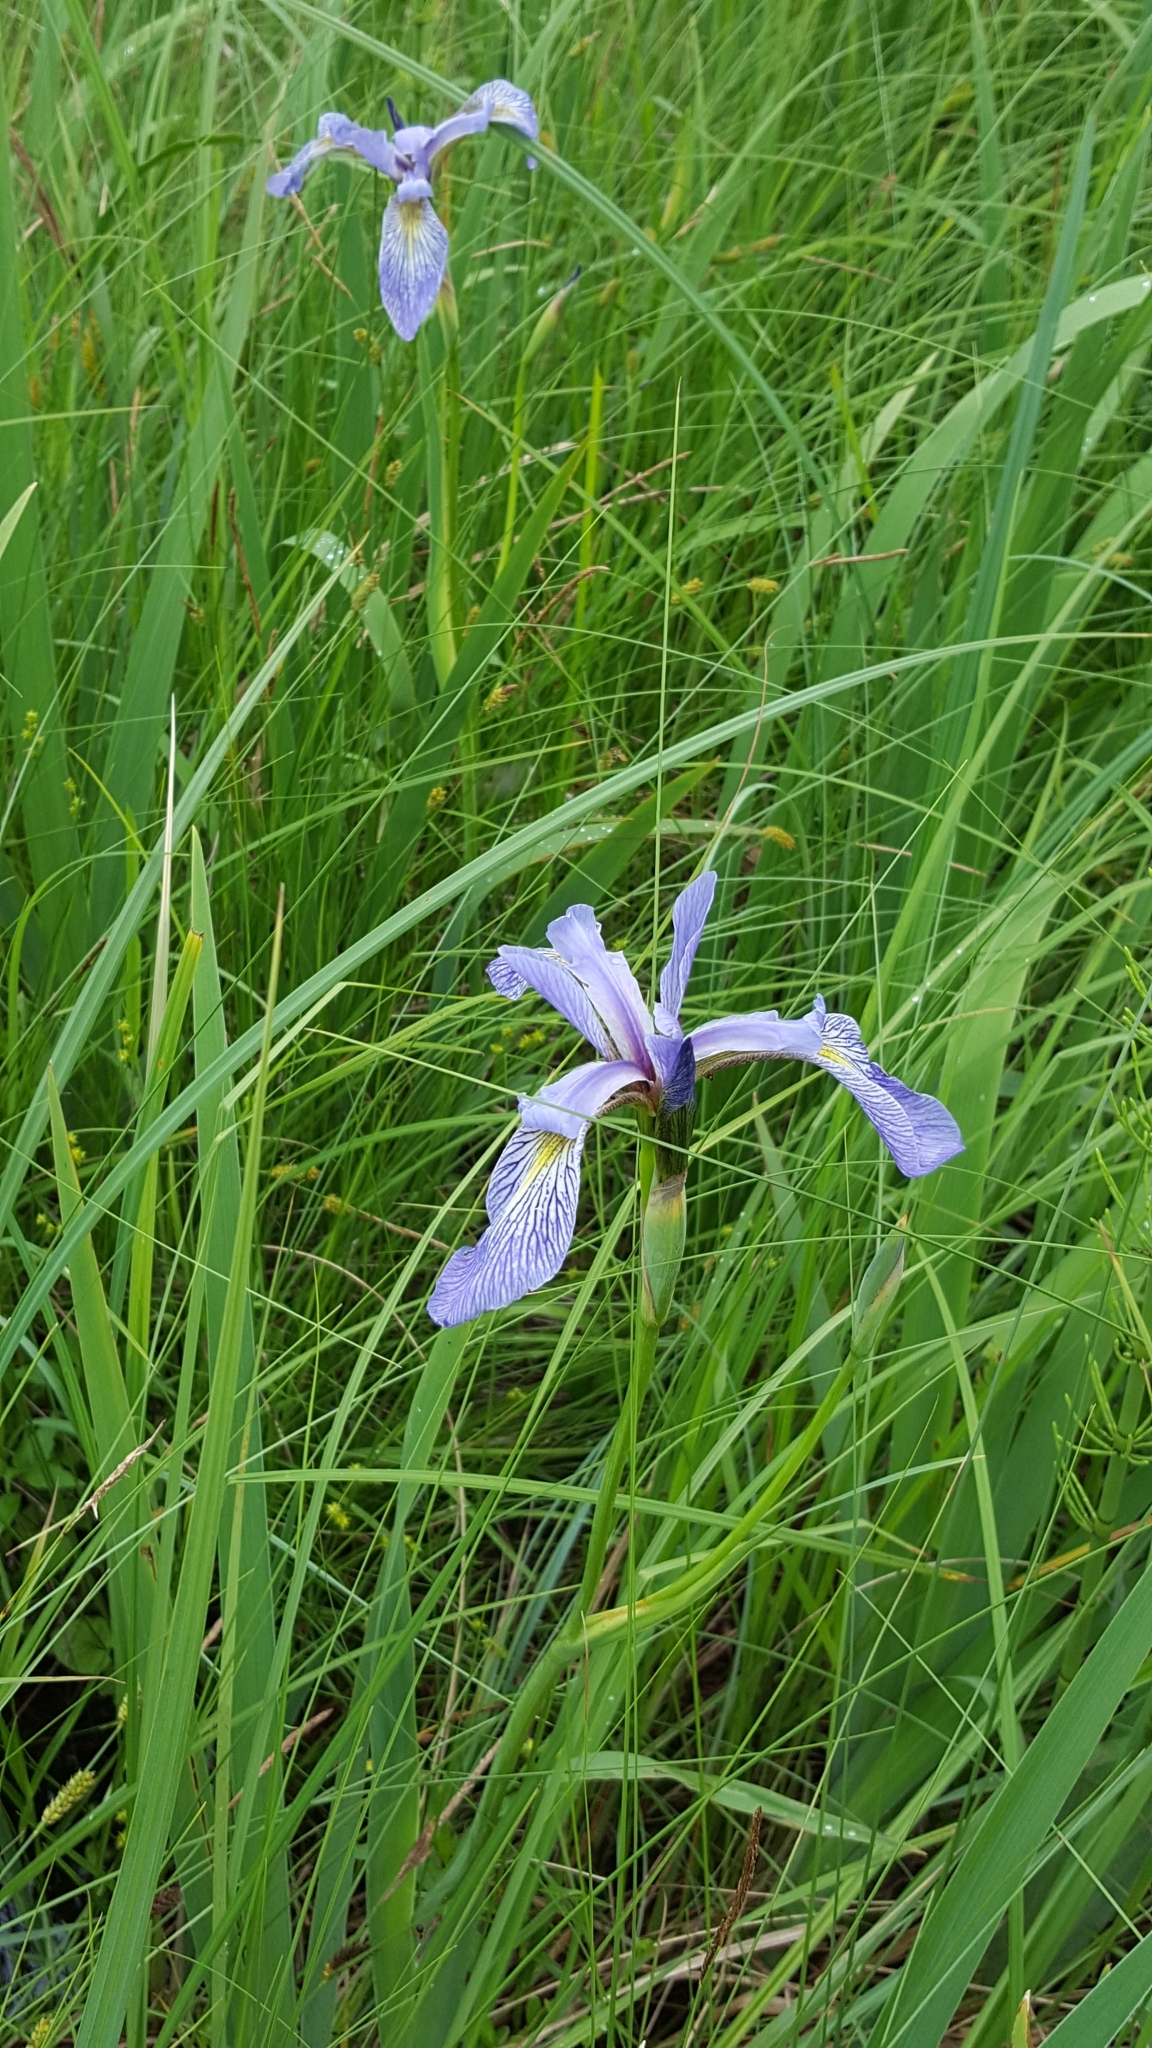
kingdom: Plantae
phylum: Tracheophyta
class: Liliopsida
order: Asparagales
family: Iridaceae
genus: Iris
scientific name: Iris versicolor
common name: Purple iris
